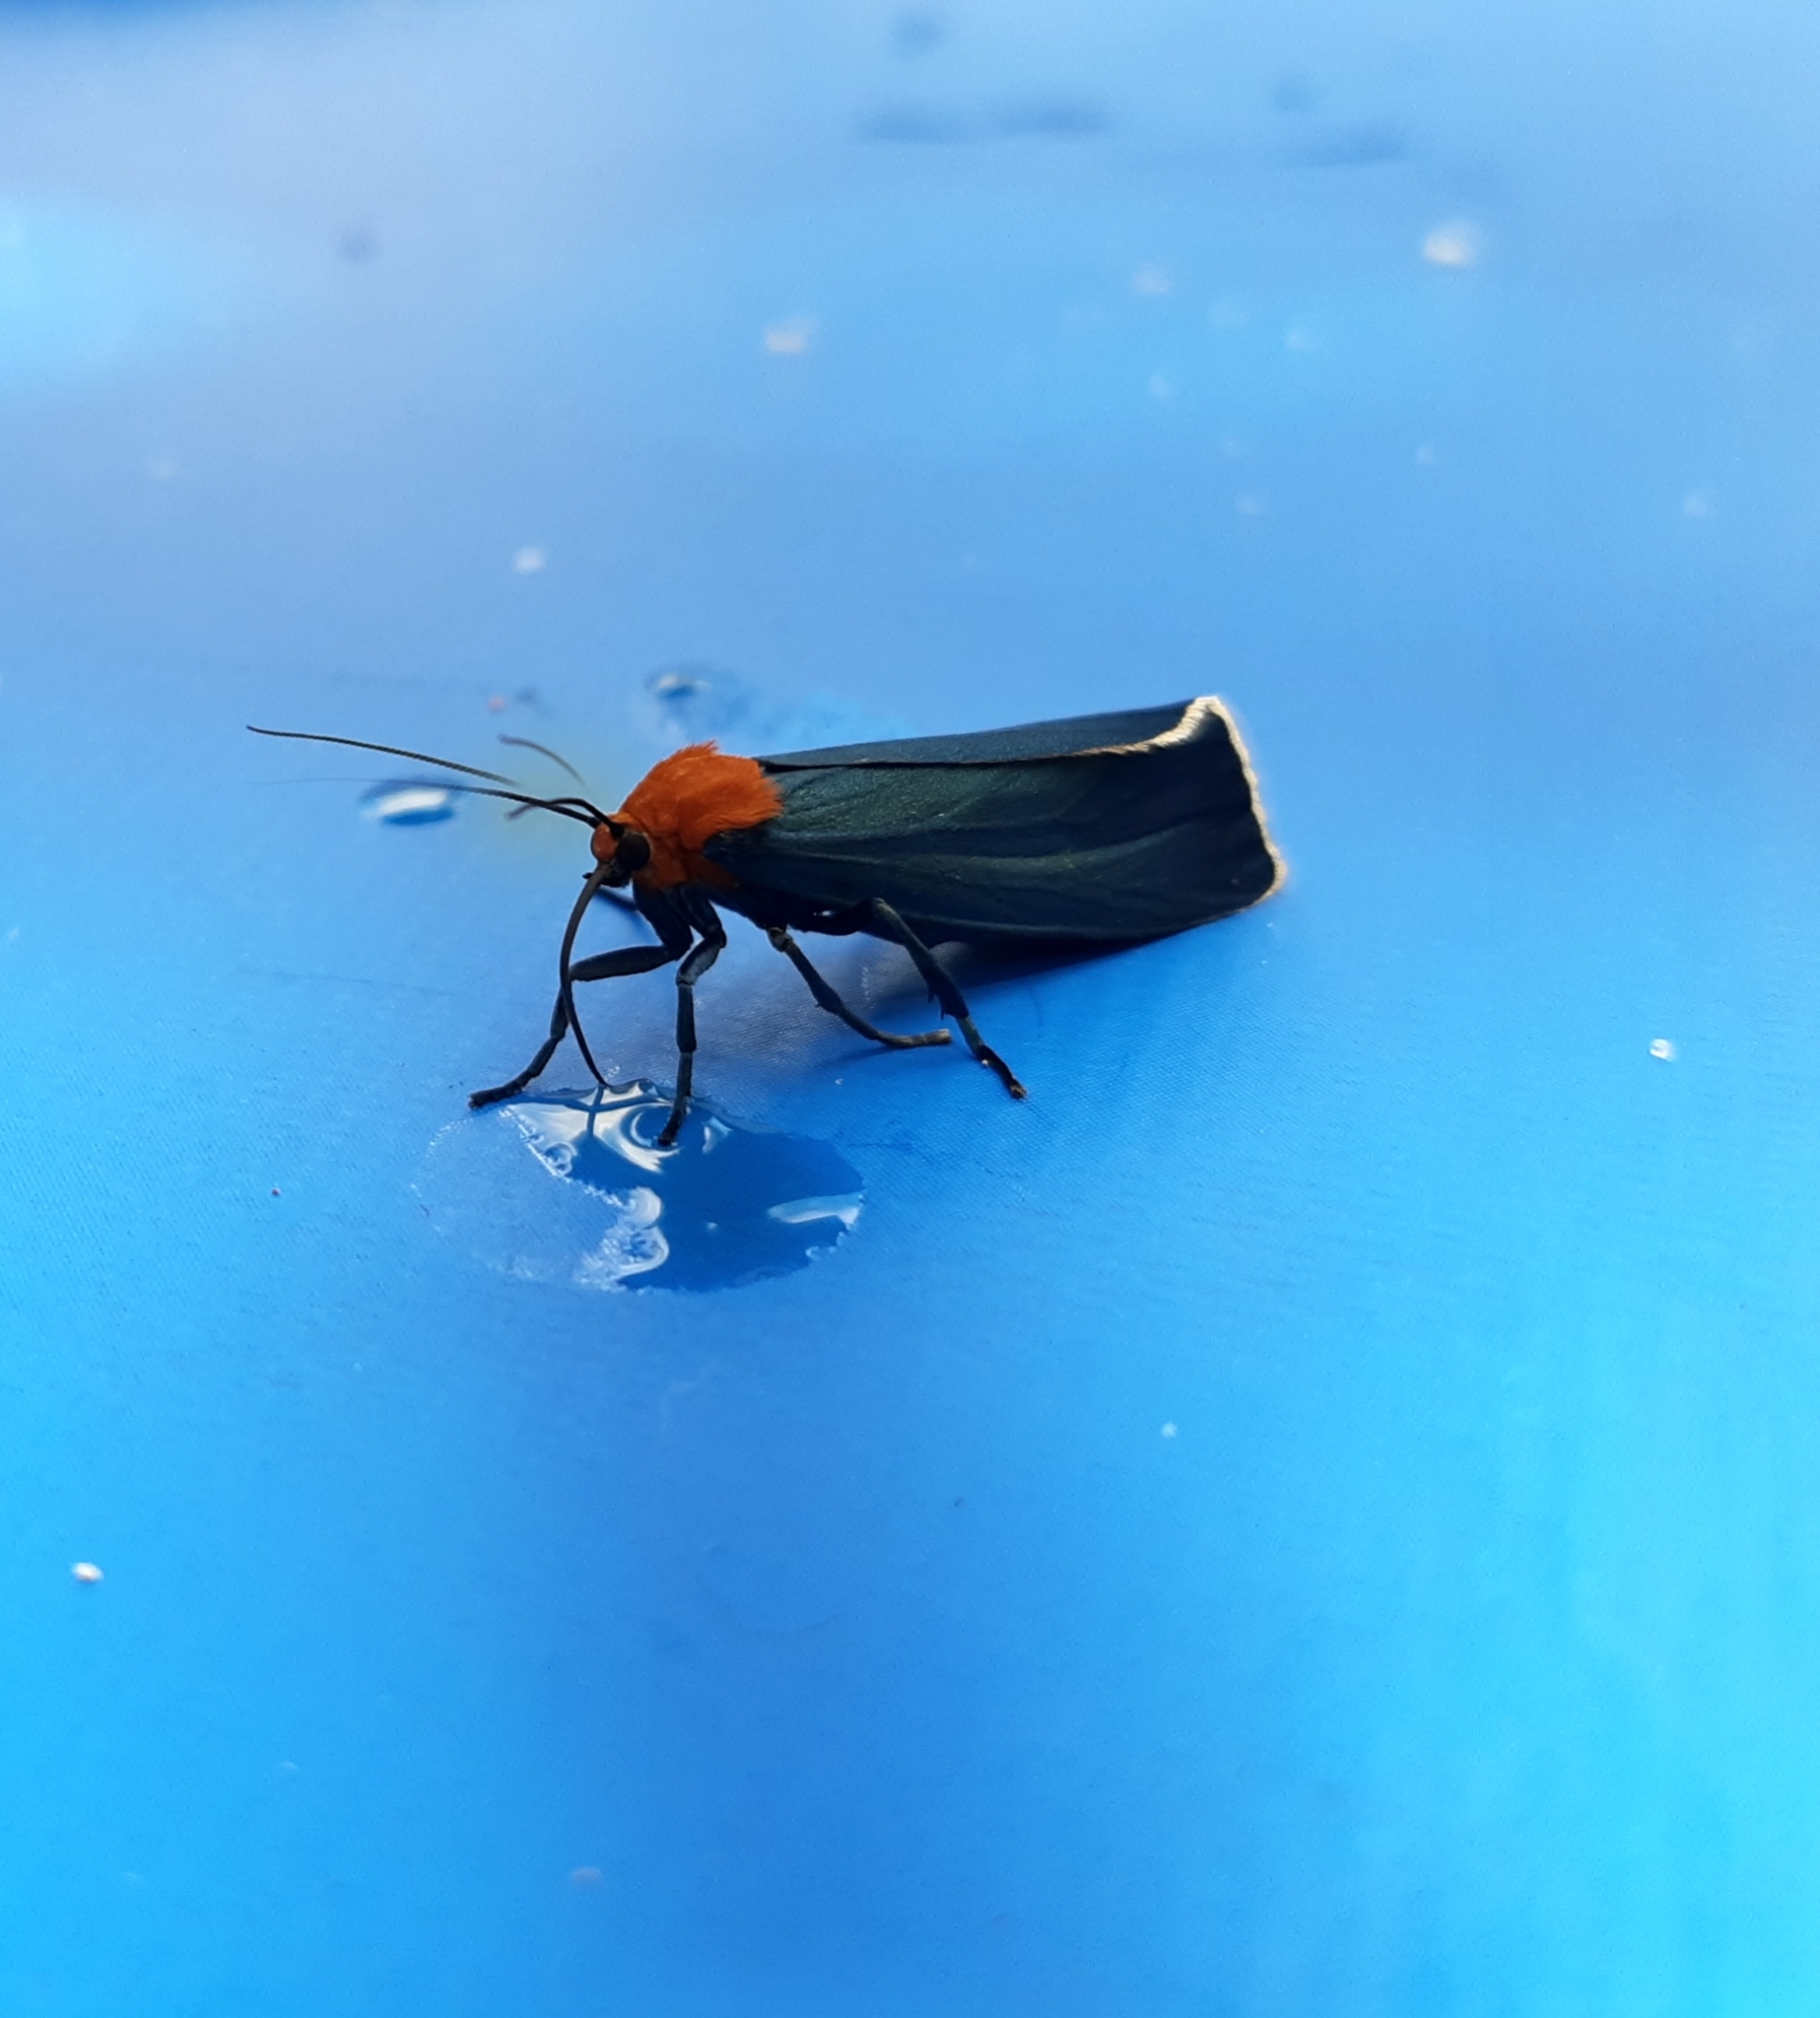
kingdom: Animalia
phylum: Arthropoda
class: Insecta
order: Lepidoptera
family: Erebidae
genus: Apistosia
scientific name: Apistosia judas
